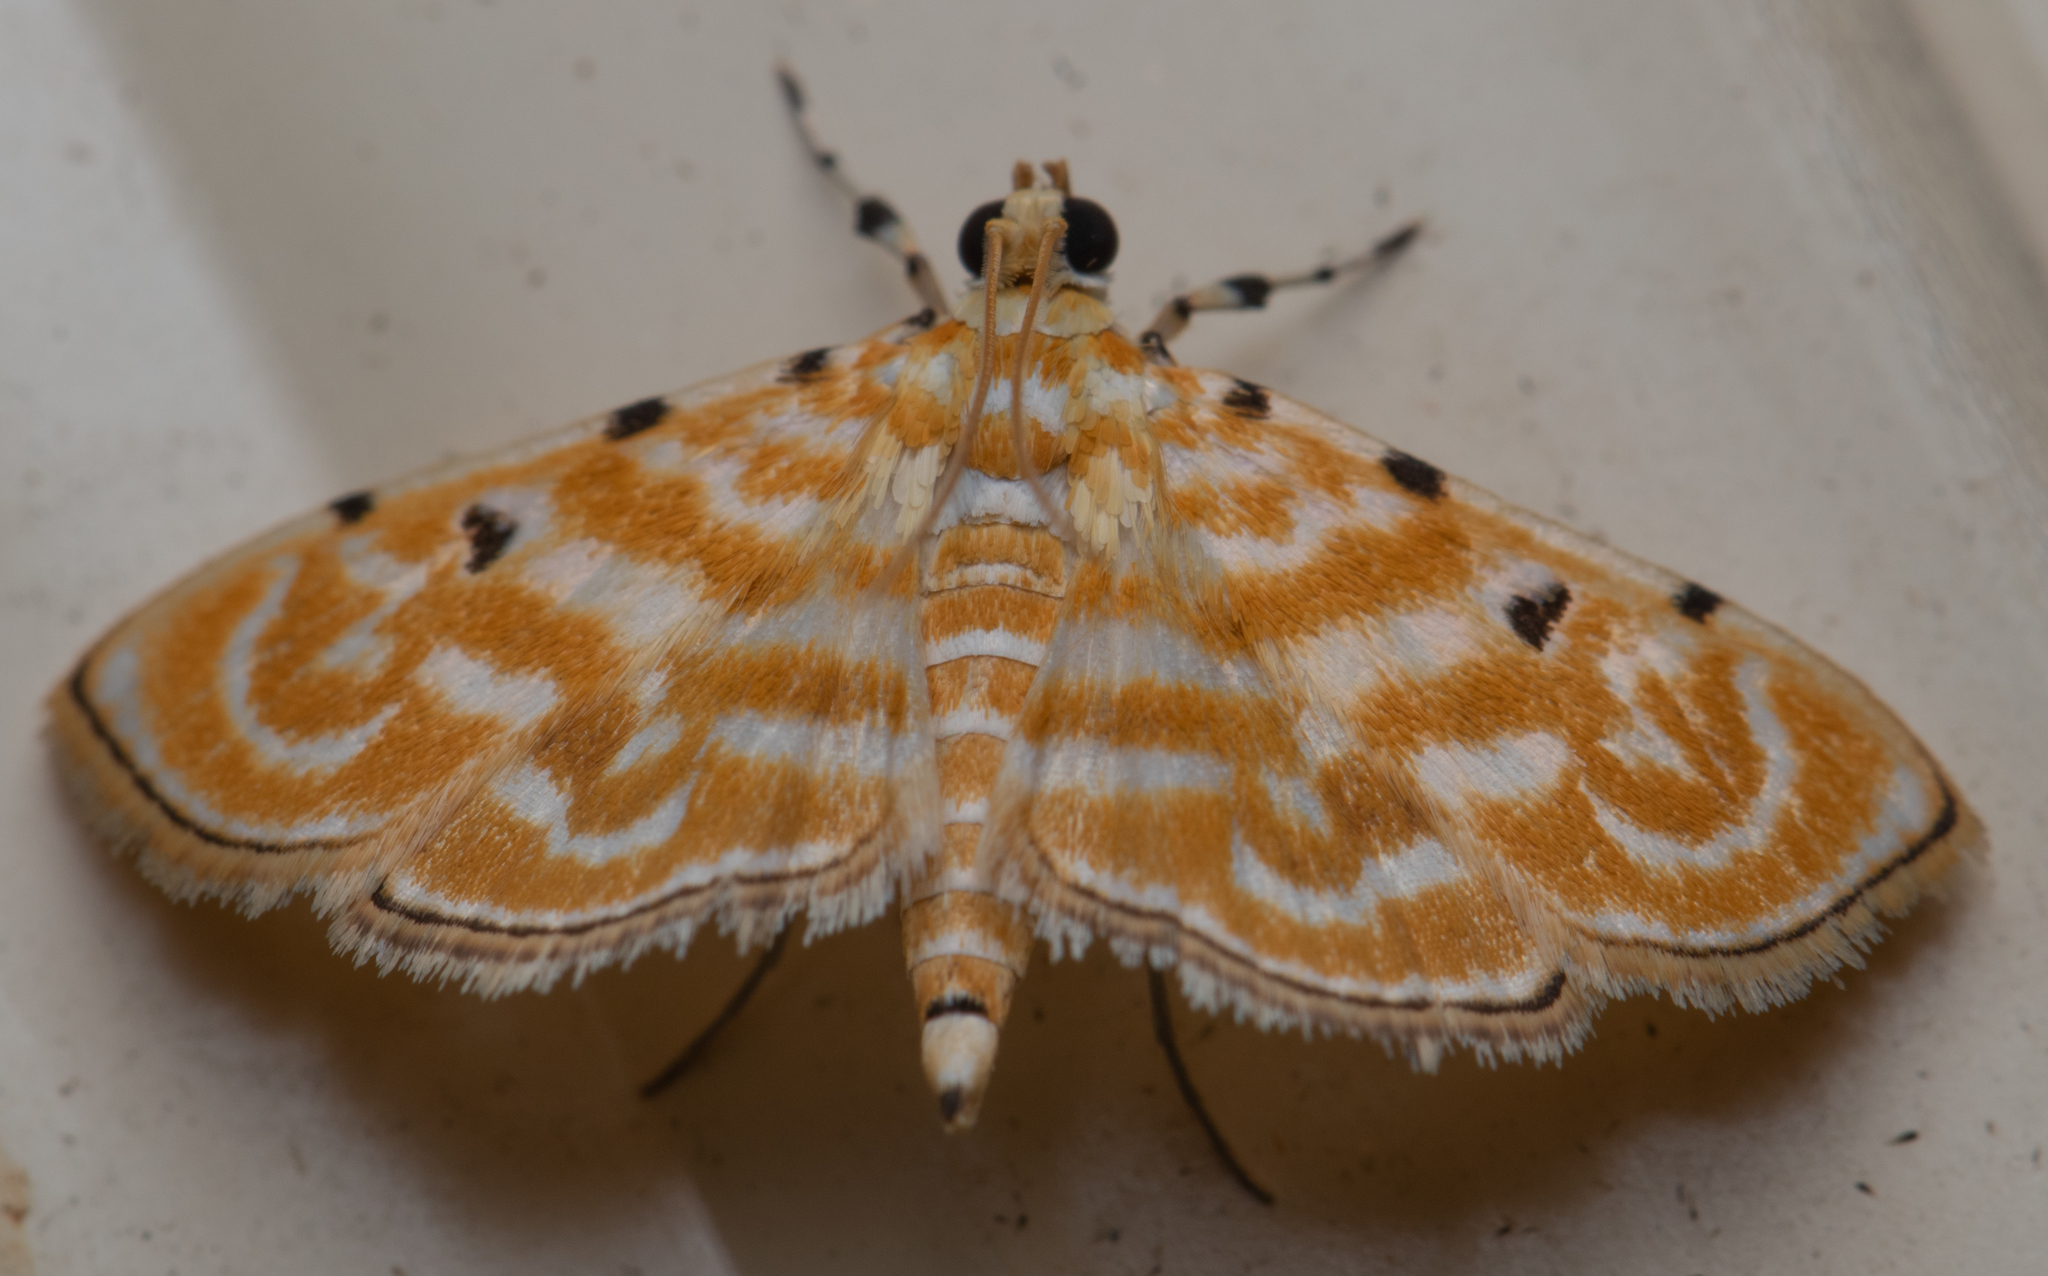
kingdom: Animalia
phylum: Arthropoda
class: Insecta
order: Lepidoptera
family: Crambidae
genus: Notarcha
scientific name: Notarcha aurolinealis
